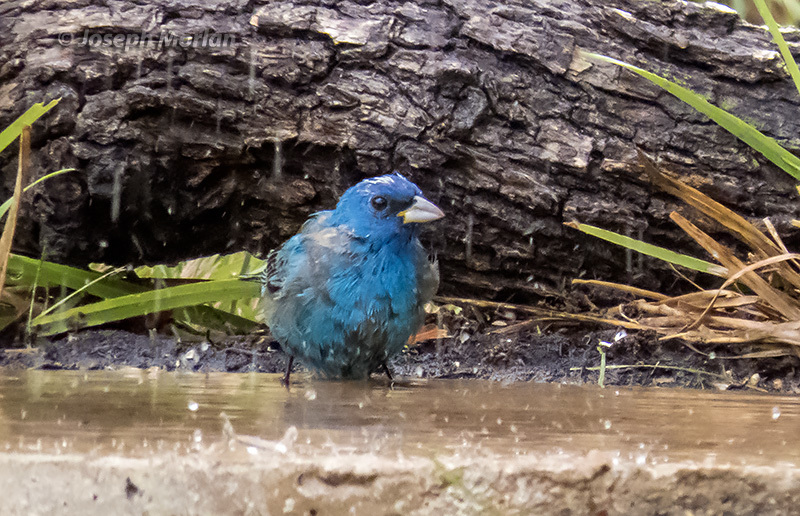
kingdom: Animalia
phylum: Chordata
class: Aves
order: Passeriformes
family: Cardinalidae
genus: Passerina
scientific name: Passerina cyanea
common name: Indigo bunting
